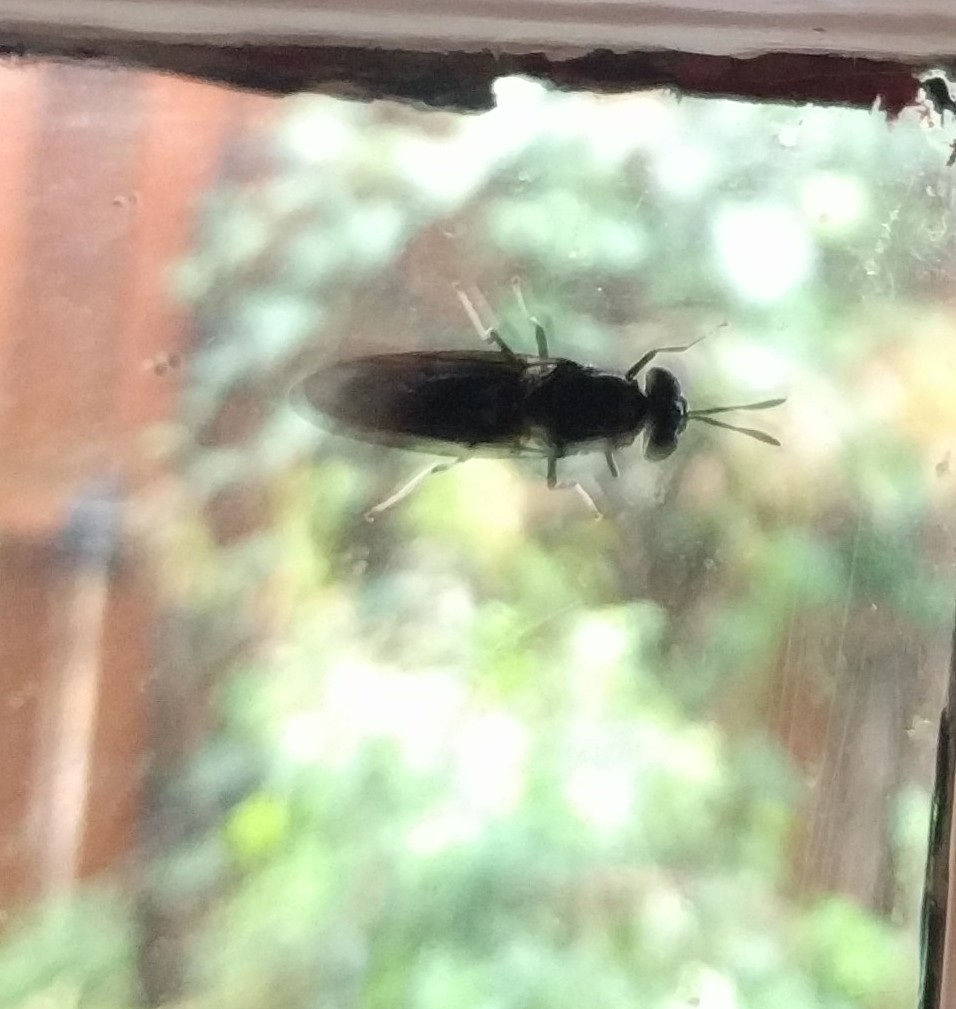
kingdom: Animalia
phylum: Arthropoda
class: Insecta
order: Diptera
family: Stratiomyidae
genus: Hermetia
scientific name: Hermetia illucens
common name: Black soldier fly
